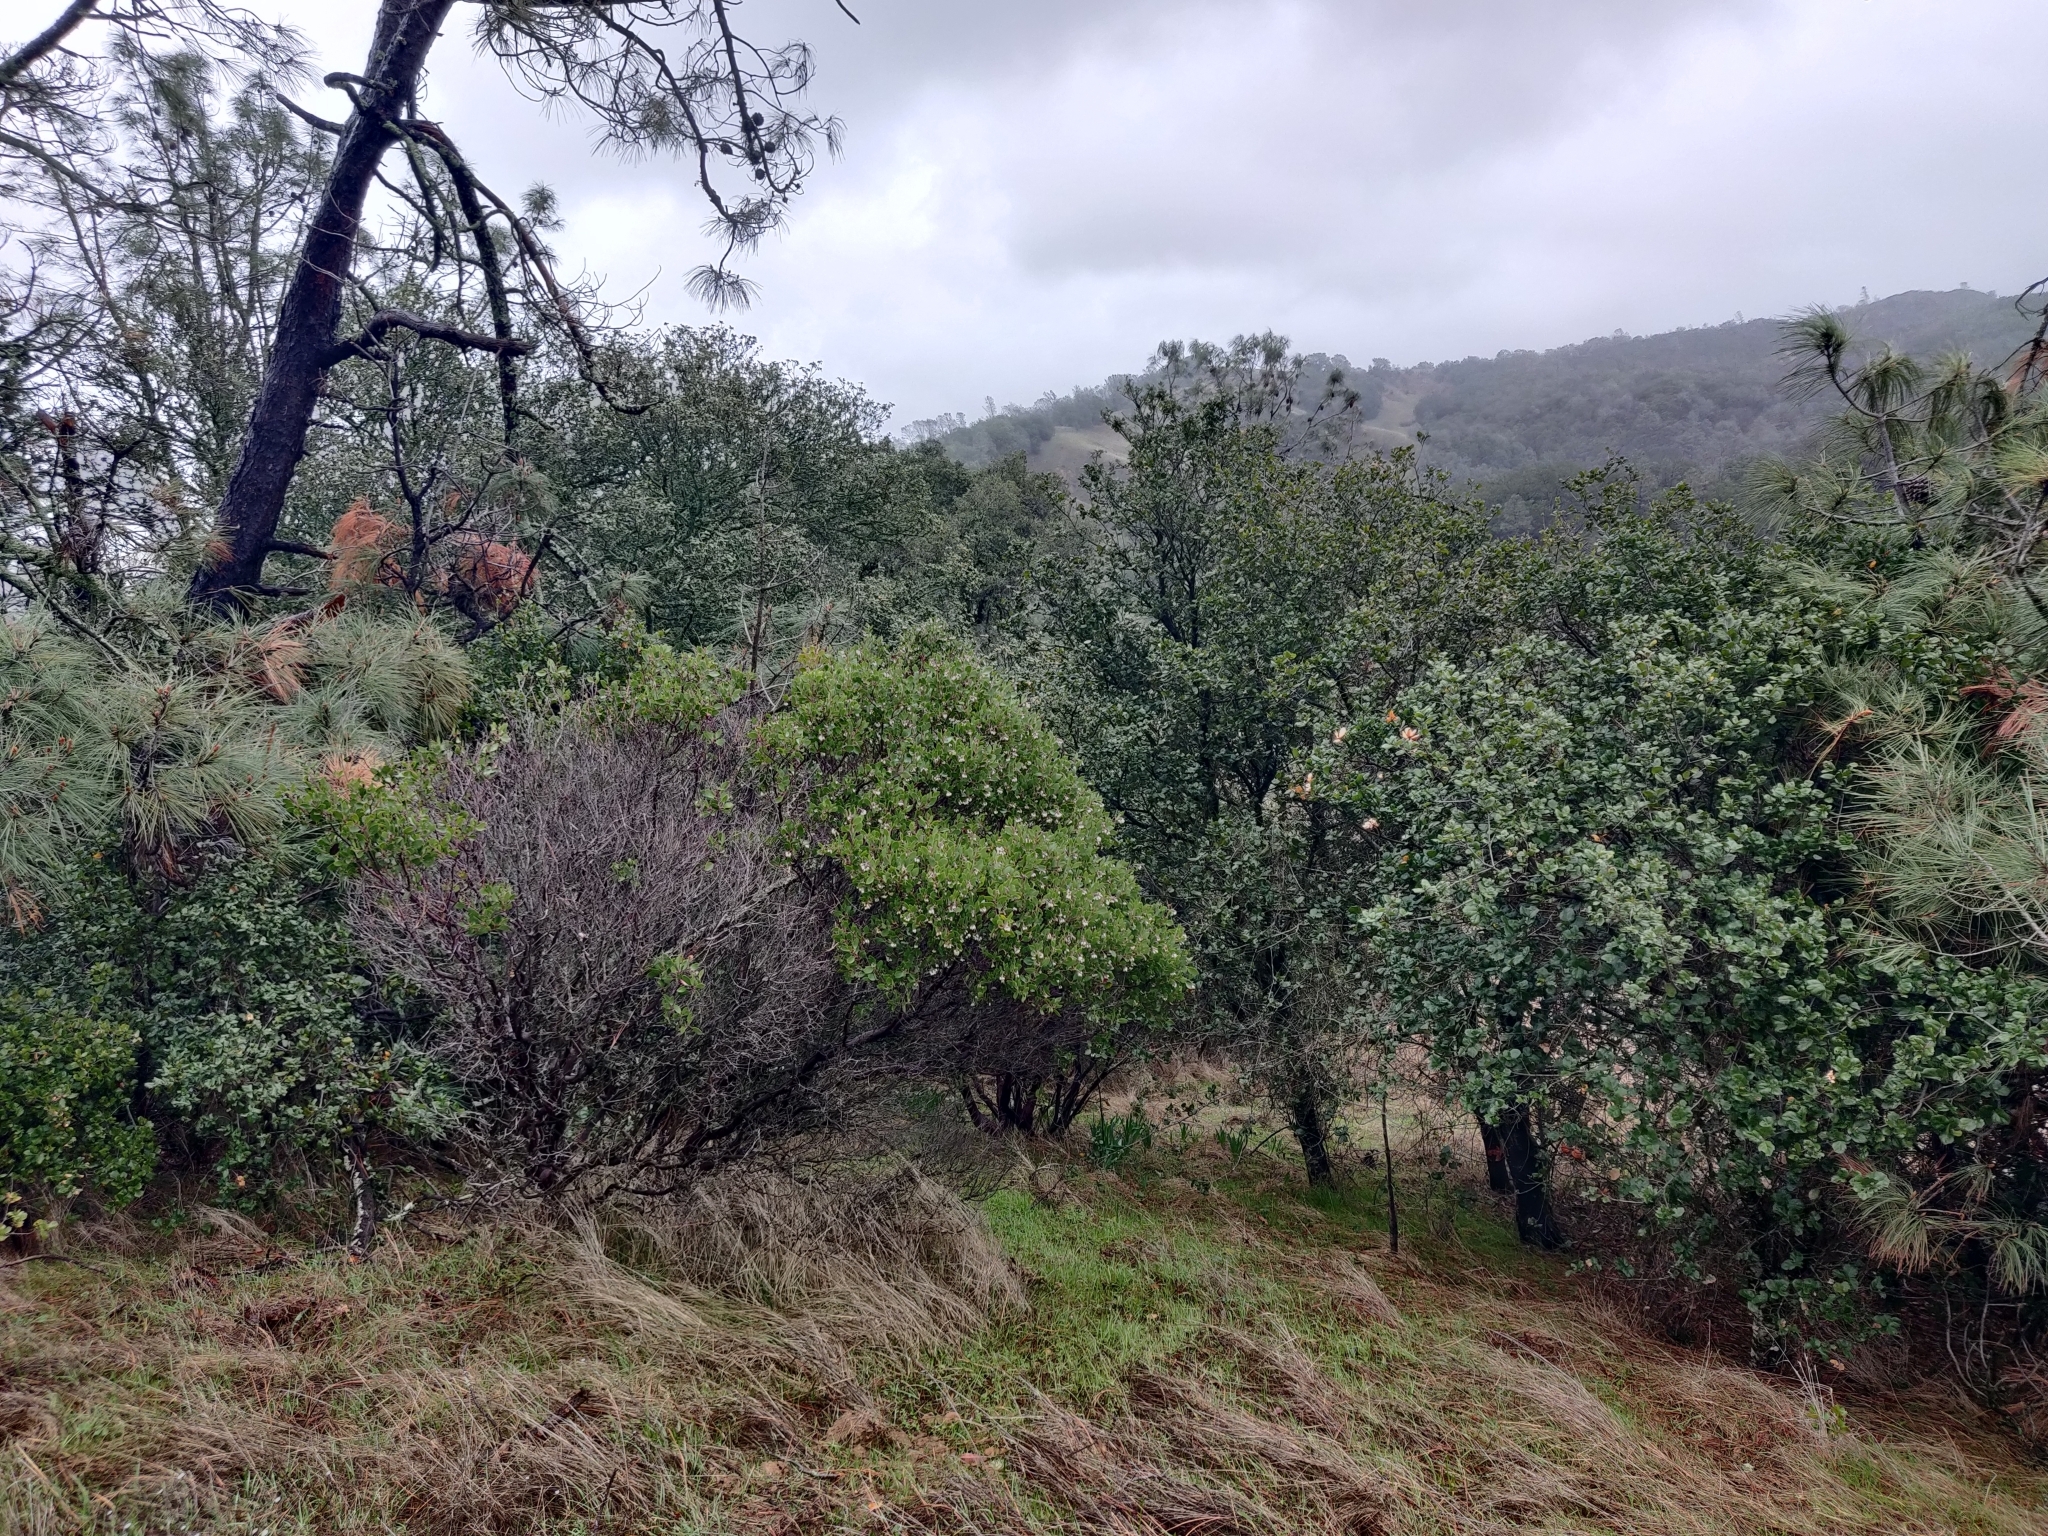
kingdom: Plantae
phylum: Tracheophyta
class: Magnoliopsida
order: Ericales
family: Ericaceae
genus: Arctostaphylos
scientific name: Arctostaphylos manzanita
